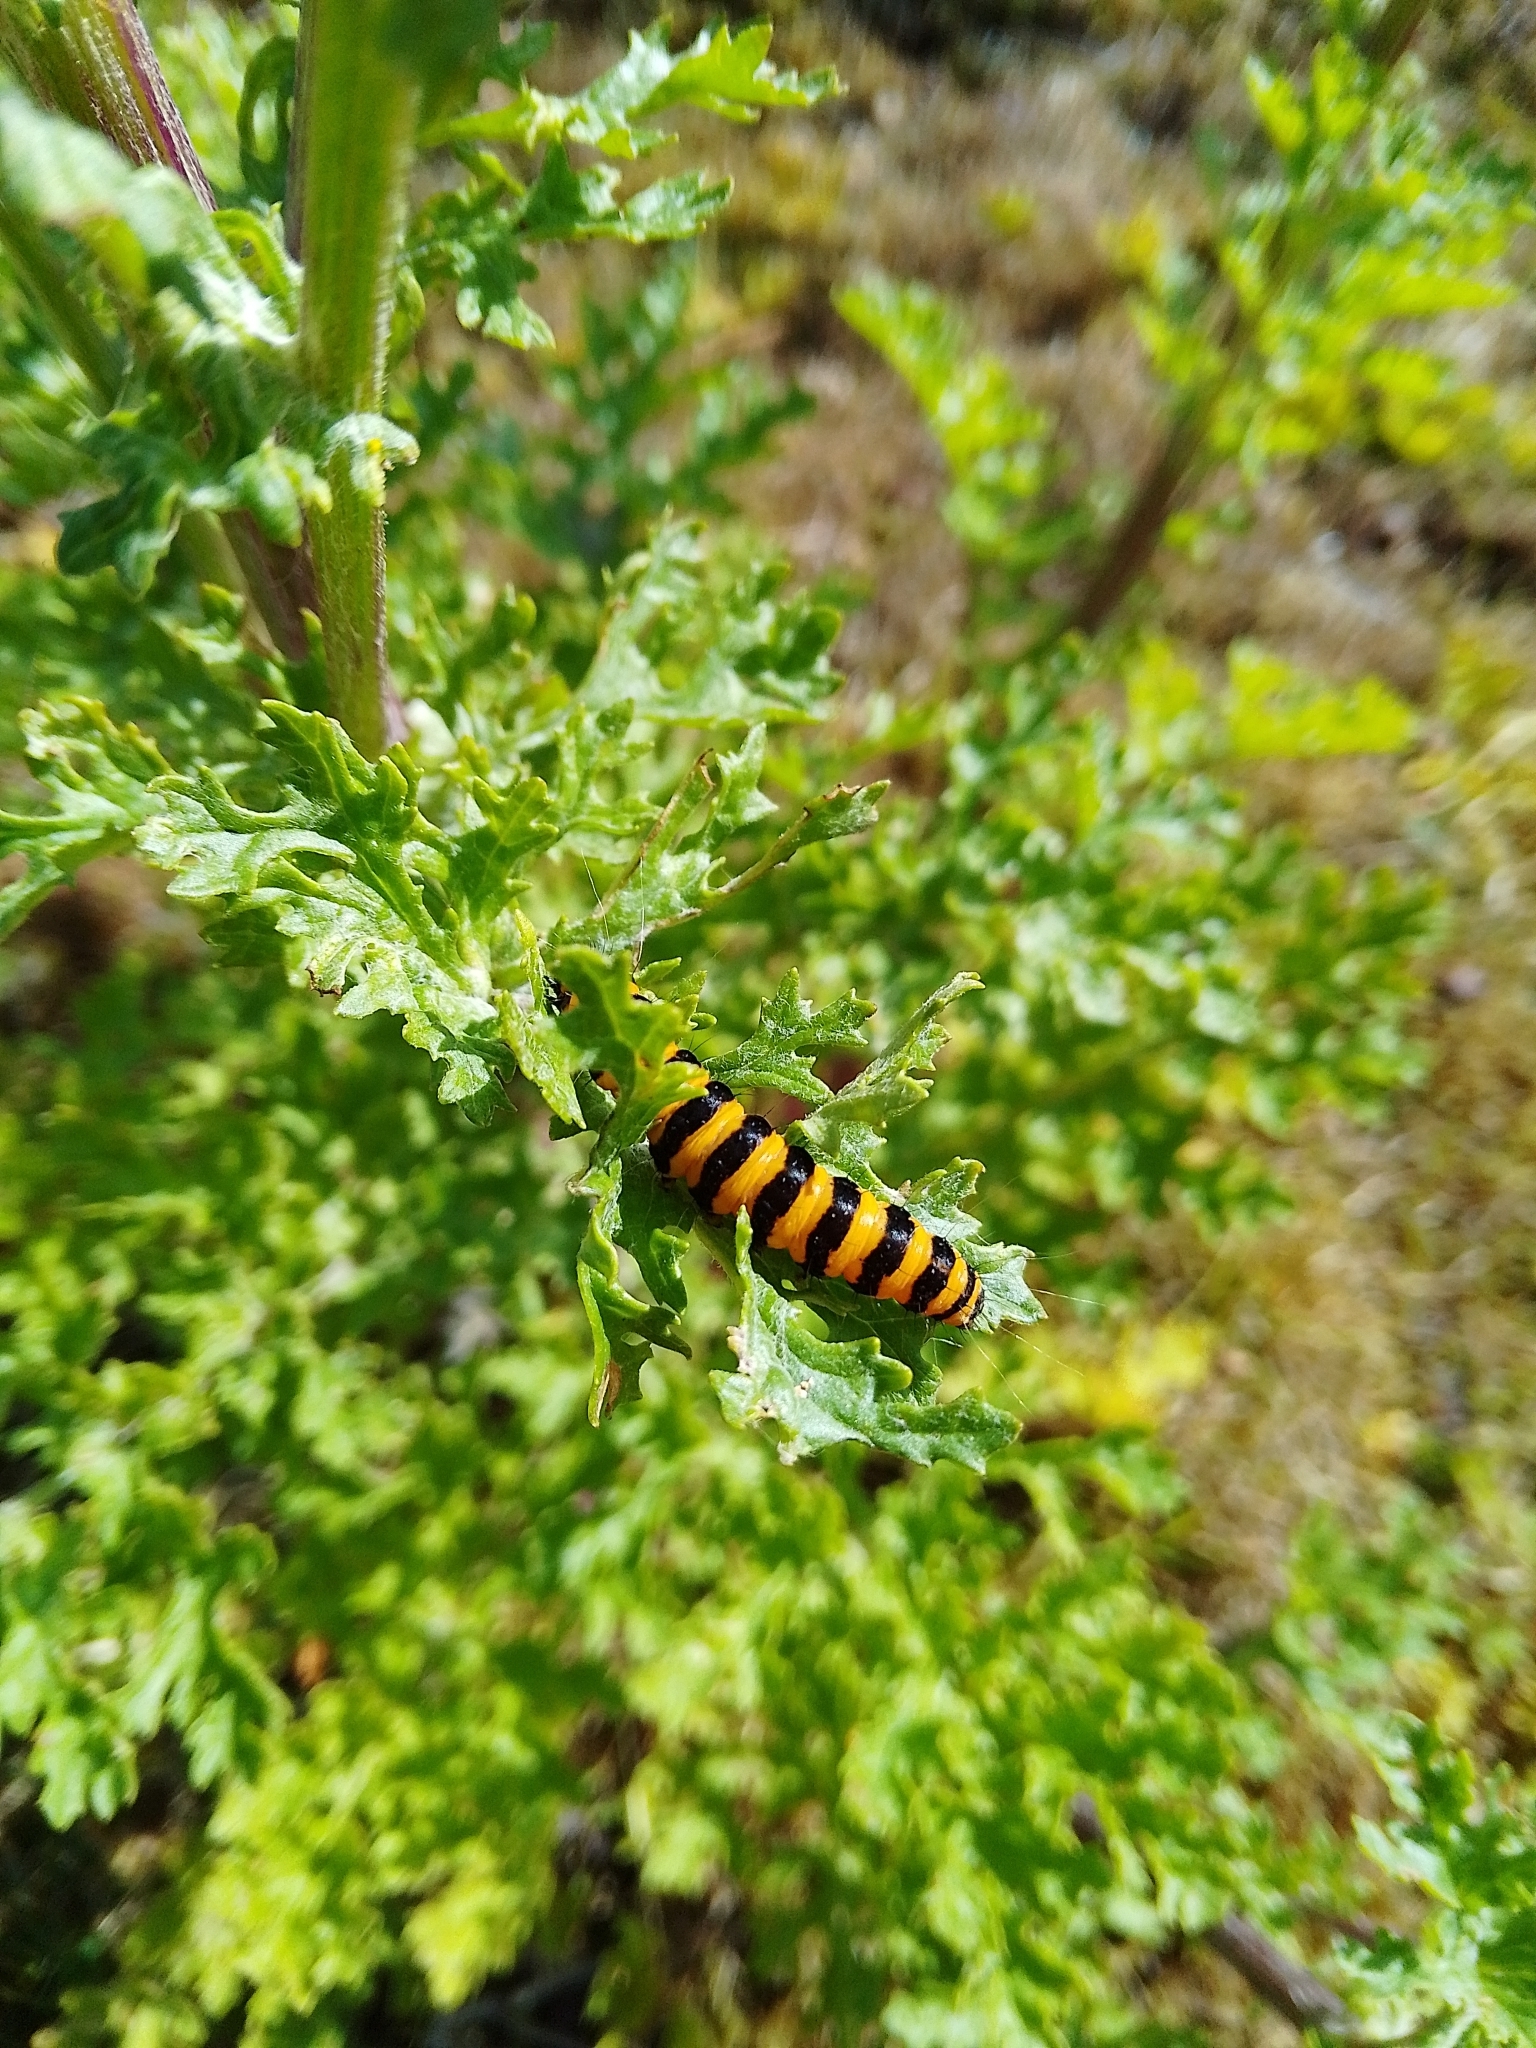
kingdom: Animalia
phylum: Arthropoda
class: Insecta
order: Lepidoptera
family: Erebidae
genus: Tyria
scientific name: Tyria jacobaeae
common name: Cinnabar
